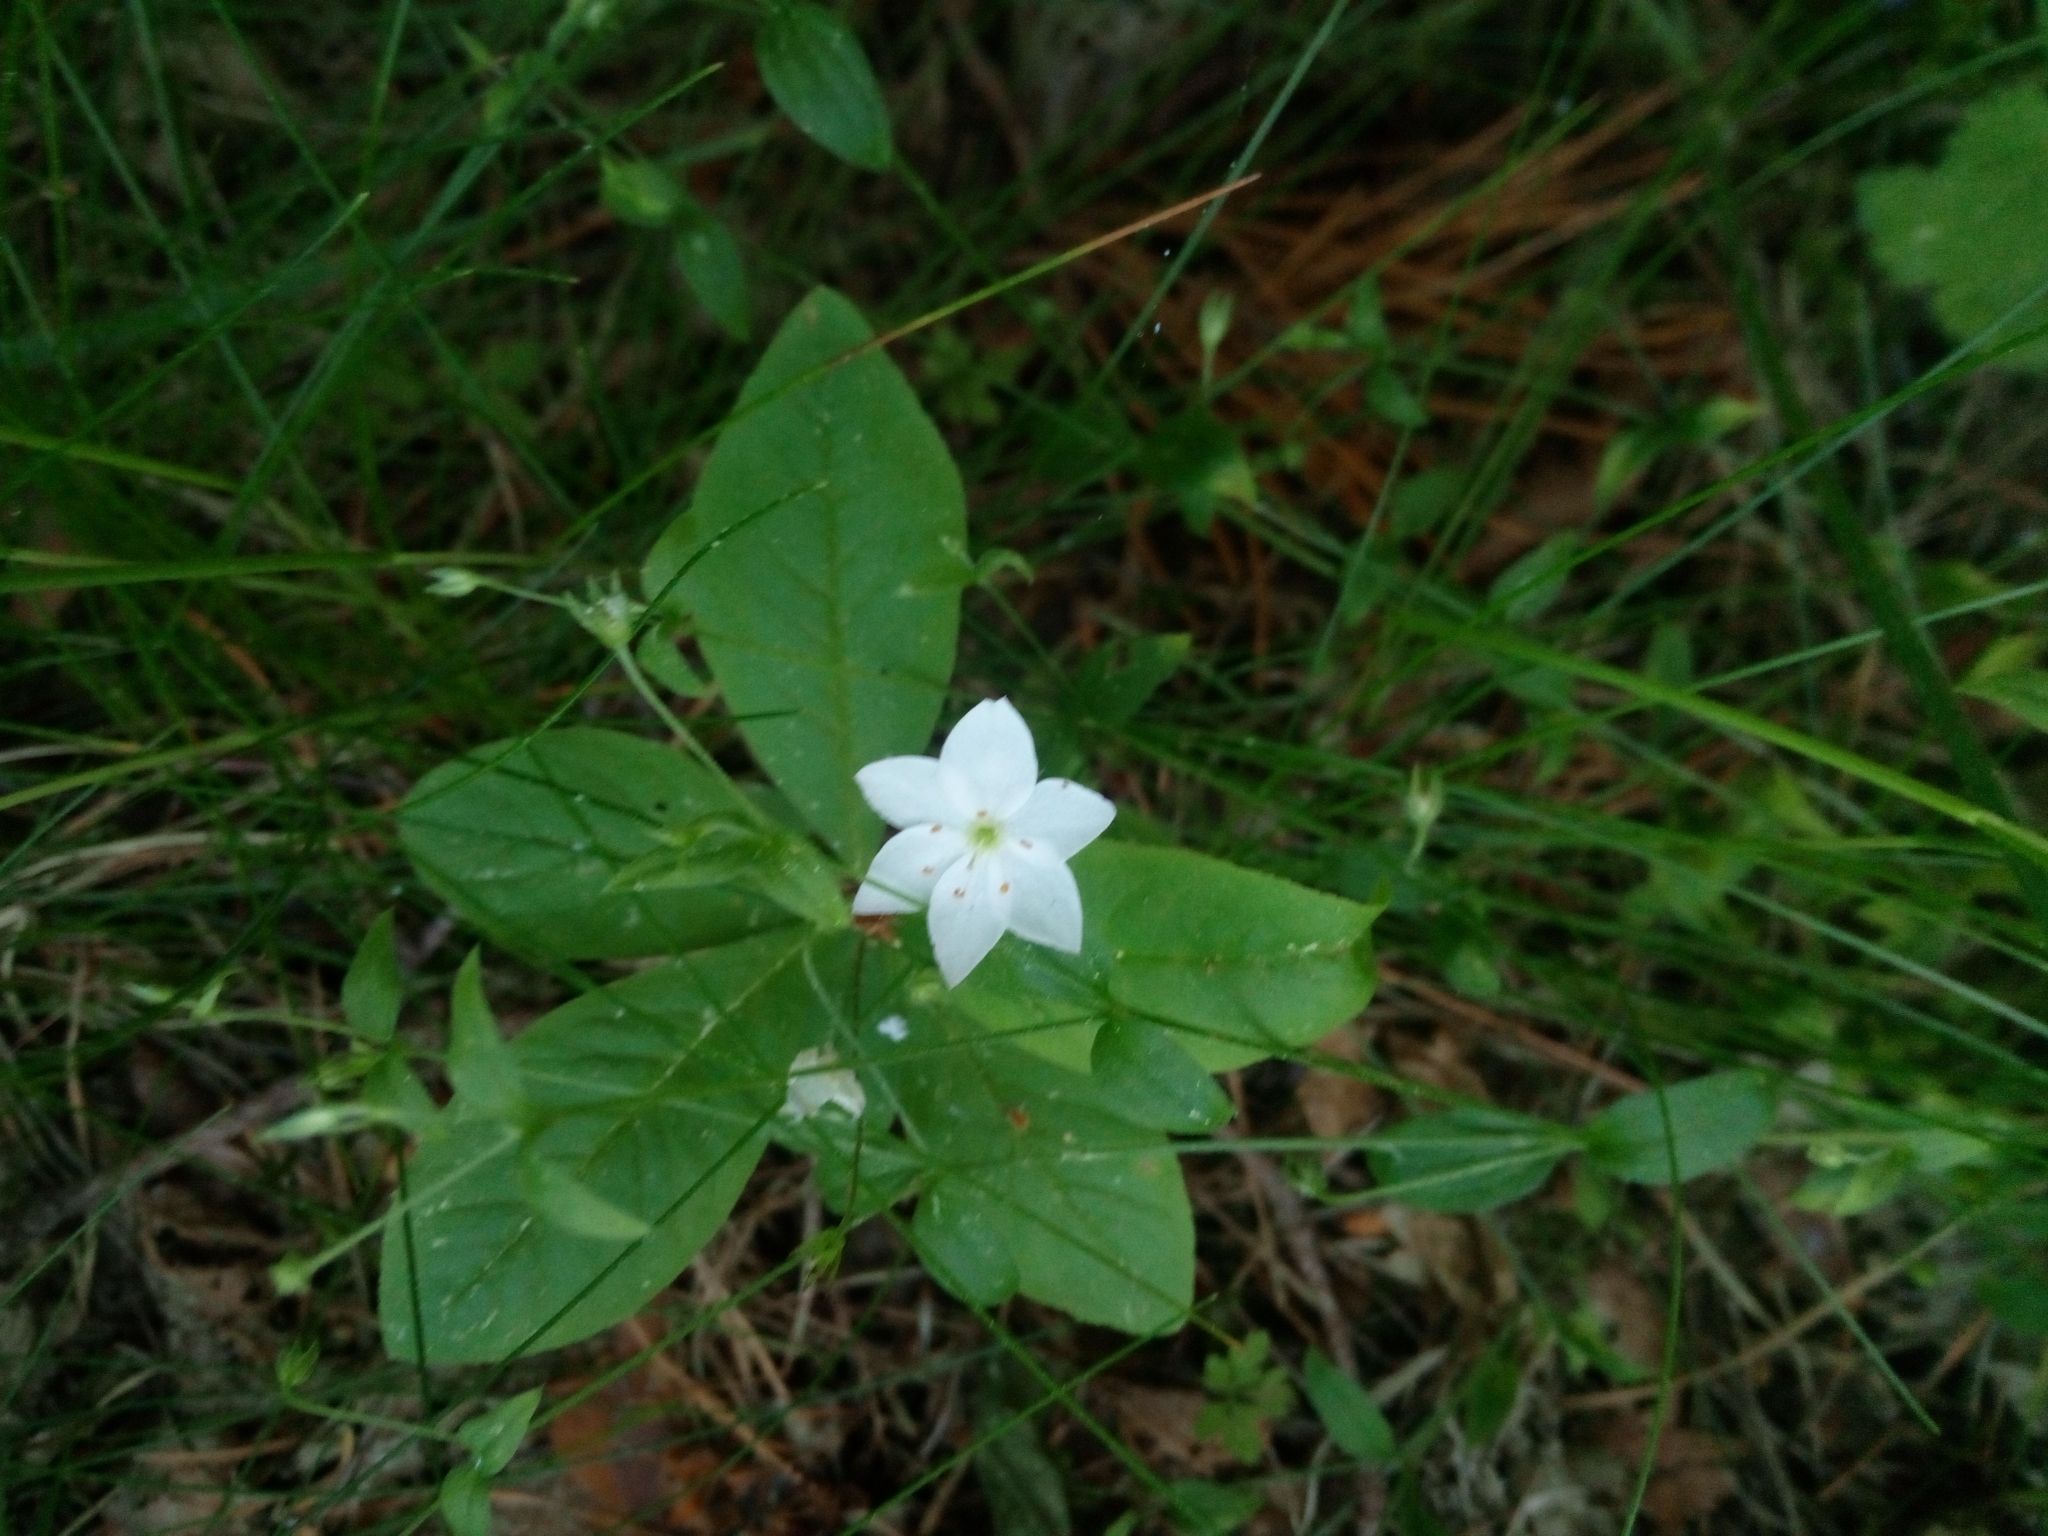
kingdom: Plantae
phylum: Tracheophyta
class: Magnoliopsida
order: Ericales
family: Primulaceae
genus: Lysimachia
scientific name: Lysimachia europaea
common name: Arctic starflower
